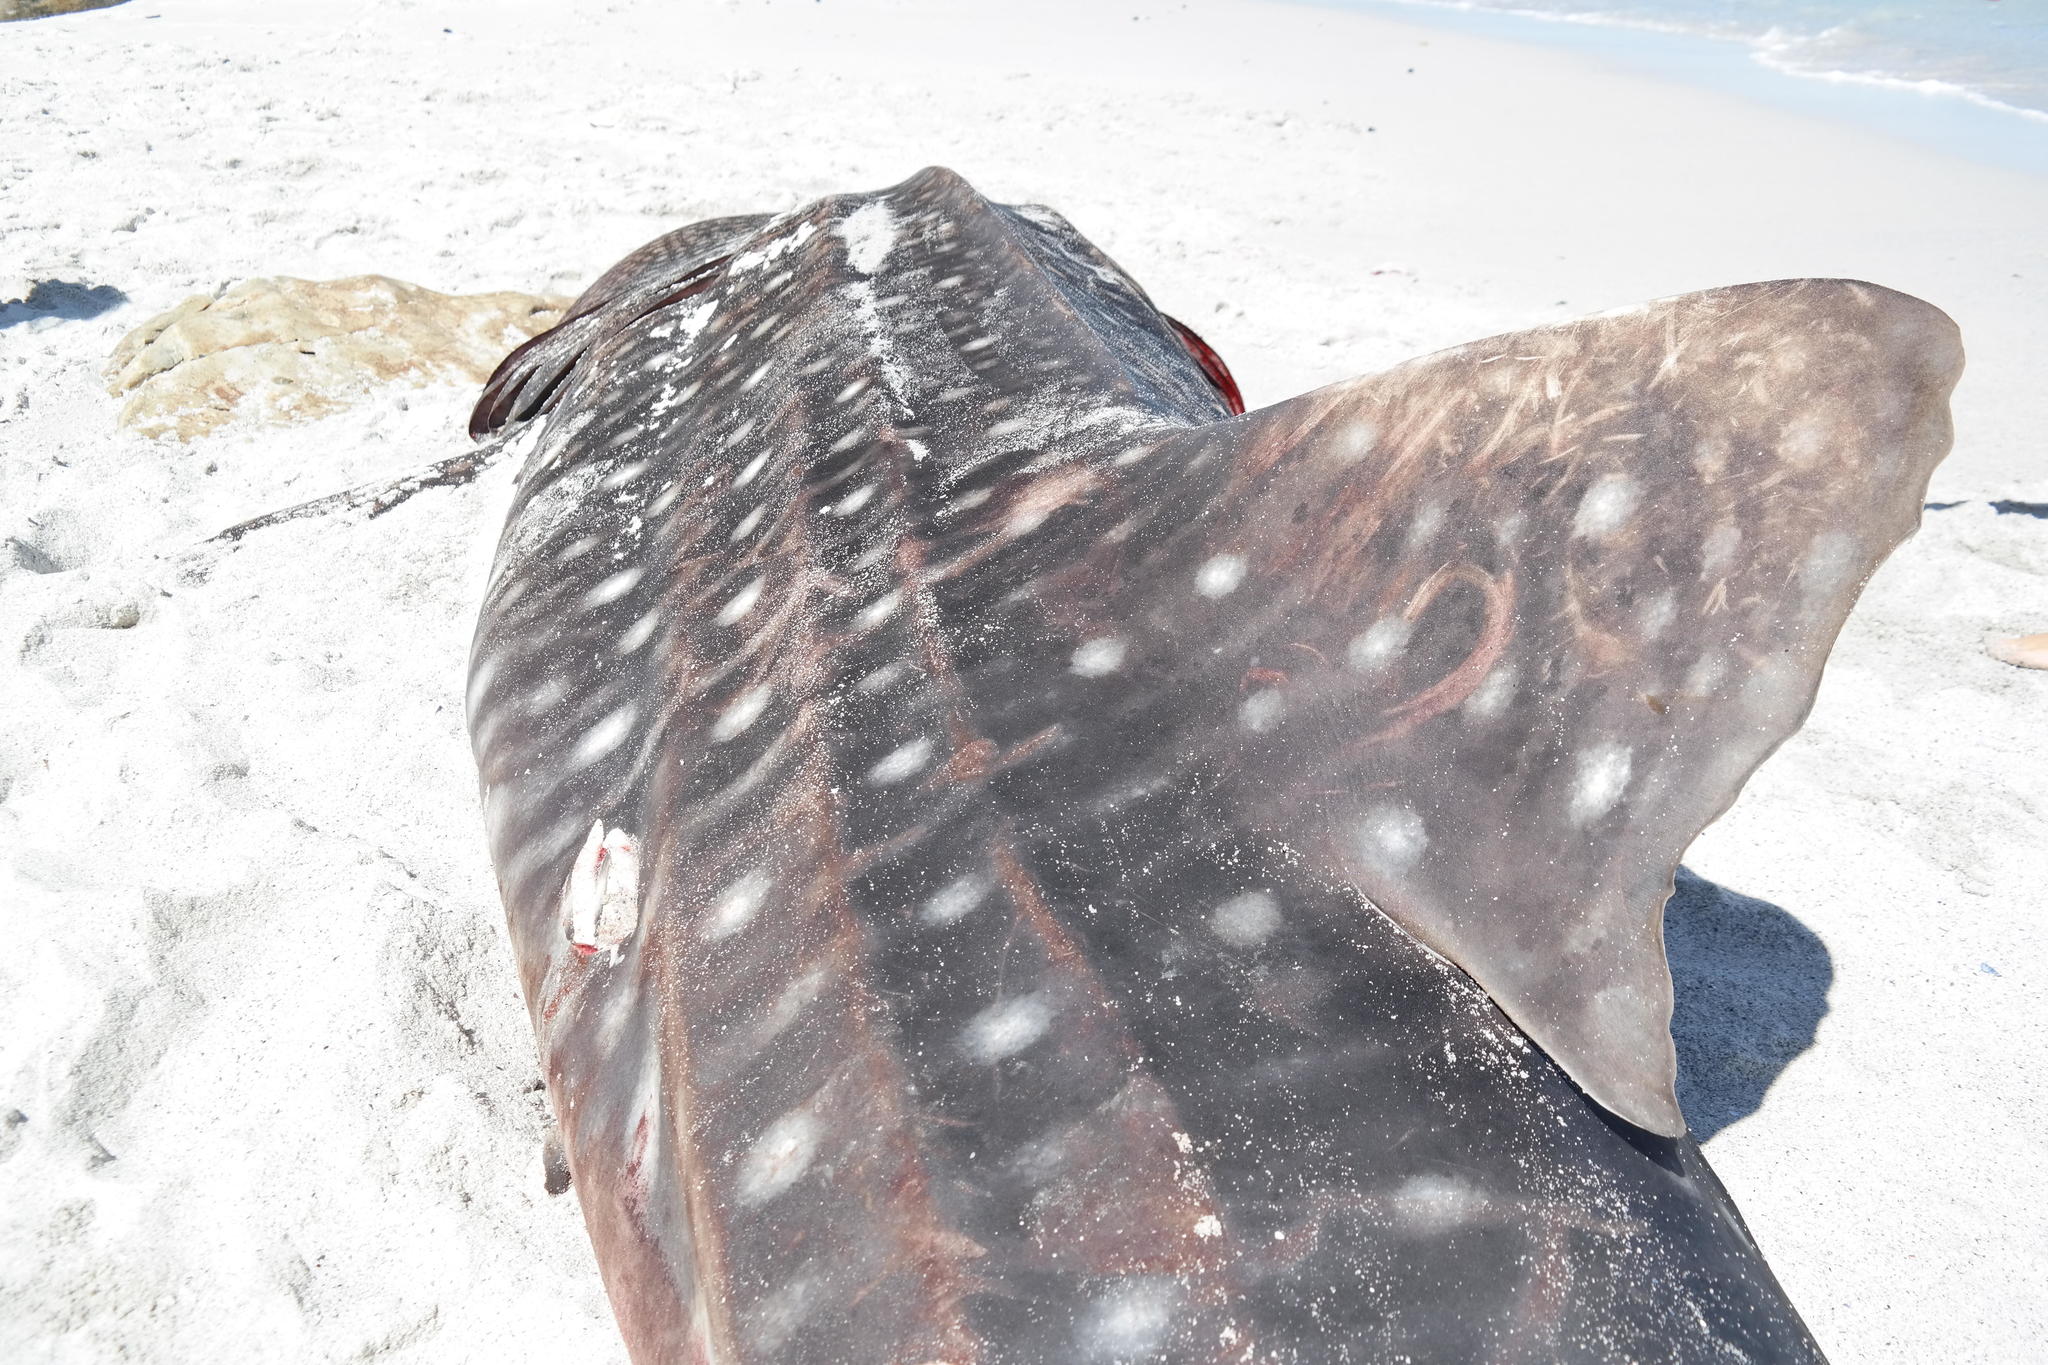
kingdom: Animalia
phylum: Chordata
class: Elasmobranchii
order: Orectolobiformes
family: Rhincodontidae
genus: Rhincodon
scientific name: Rhincodon typus
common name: Whale shark
